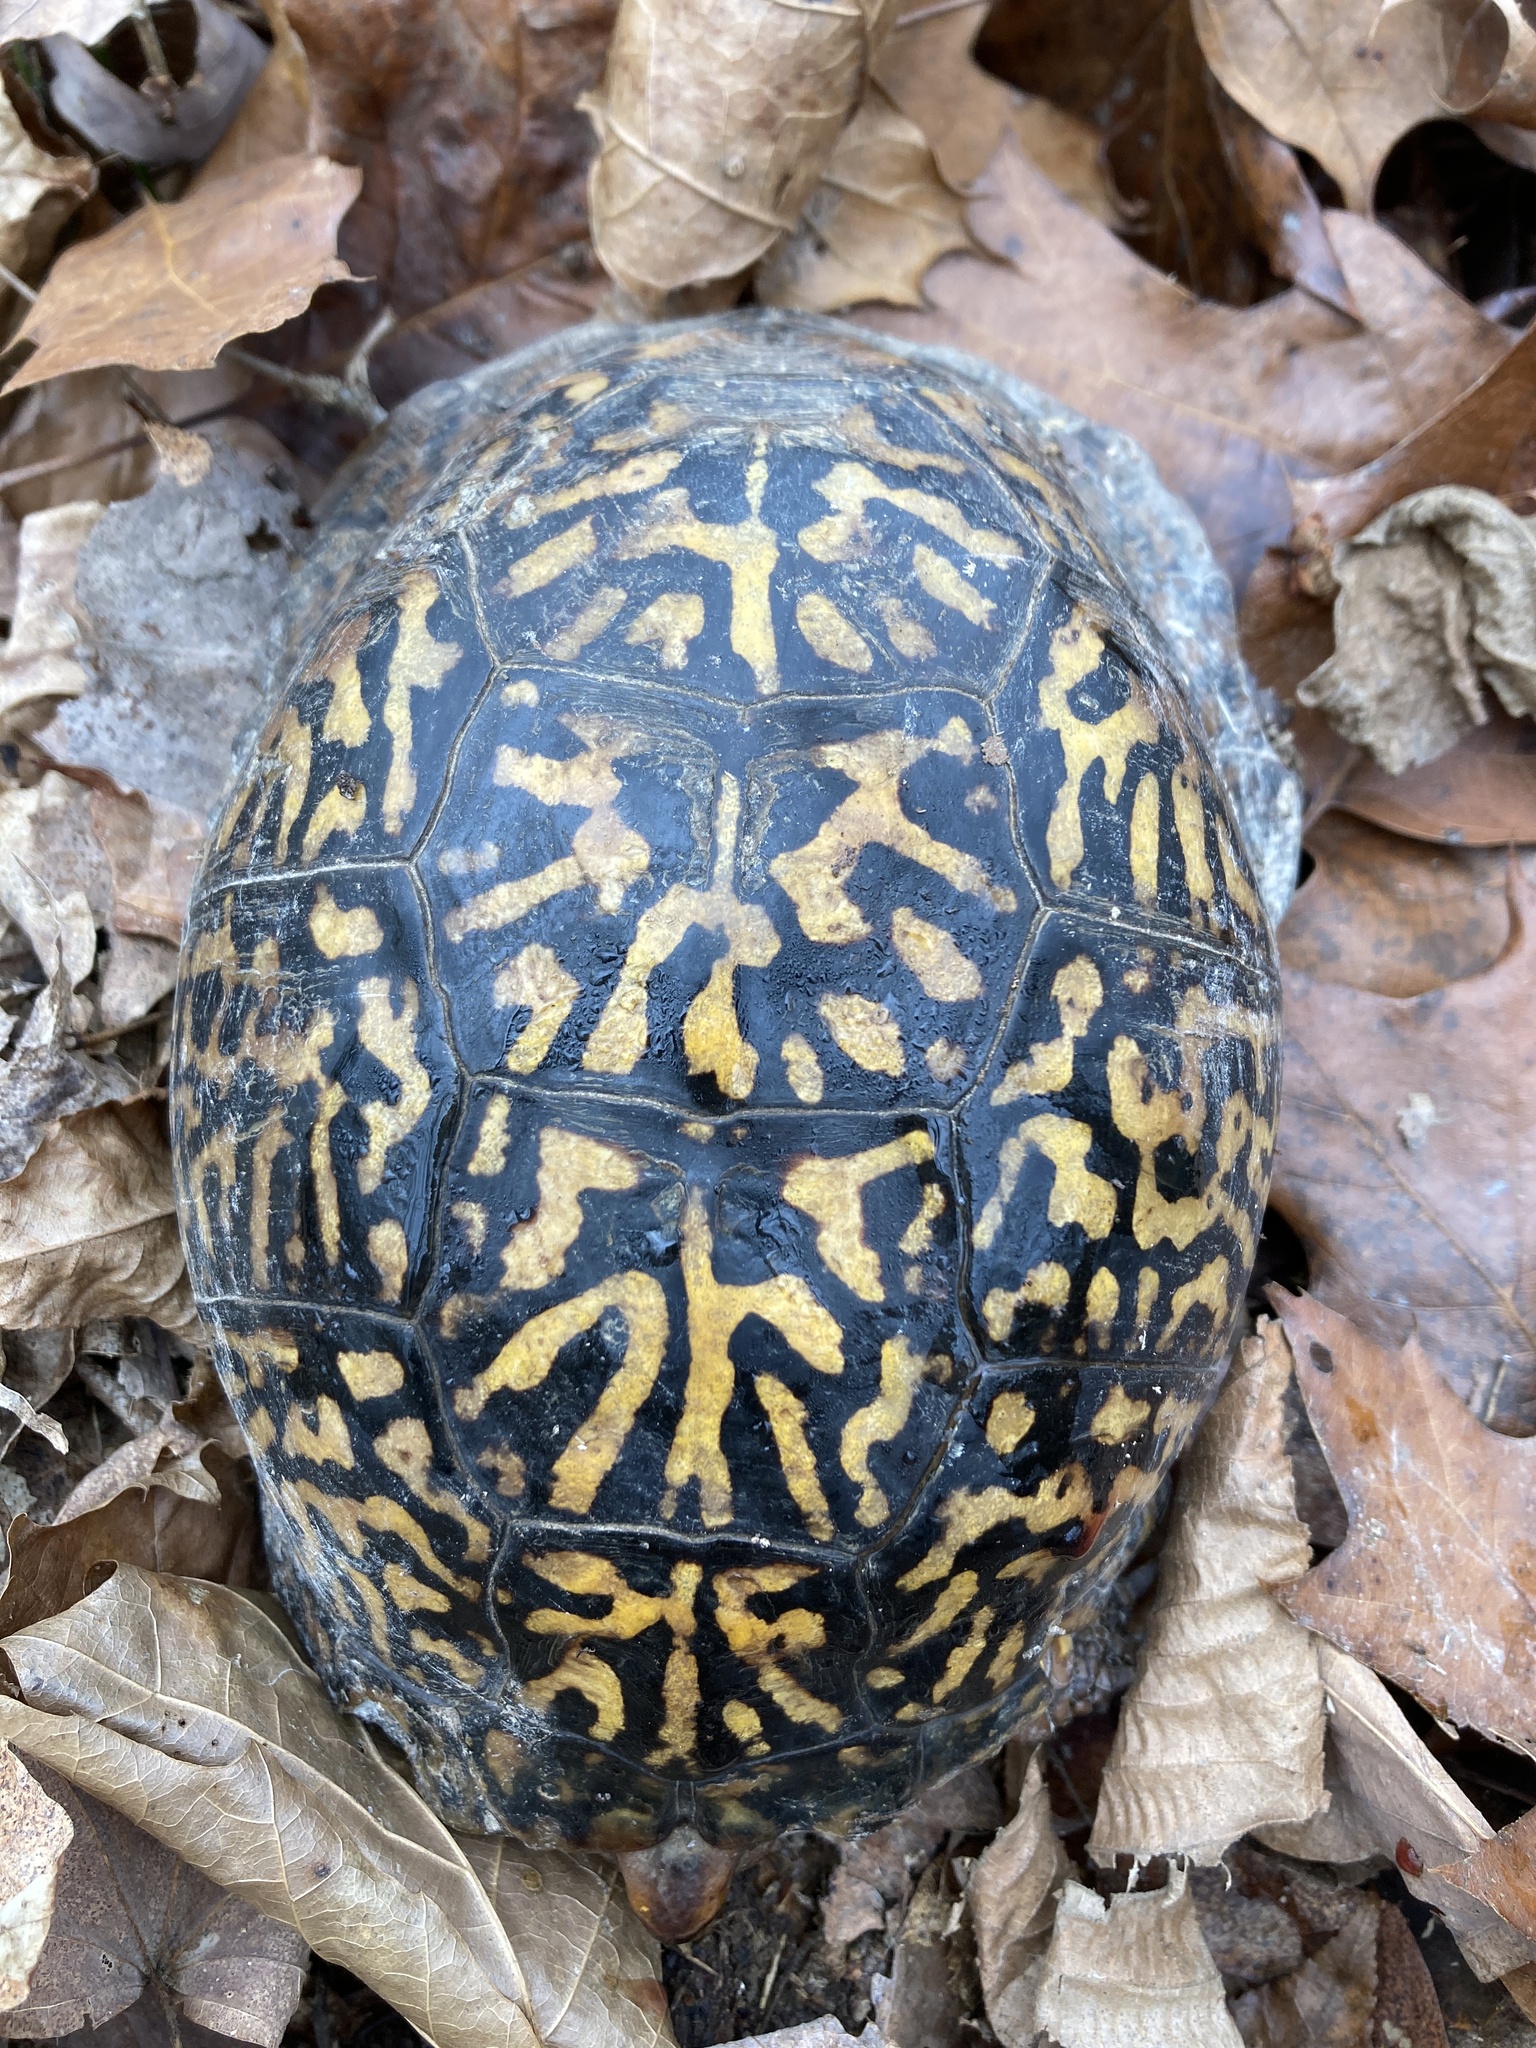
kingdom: Animalia
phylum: Chordata
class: Testudines
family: Emydidae
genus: Terrapene
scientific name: Terrapene carolina
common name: Common box turtle
